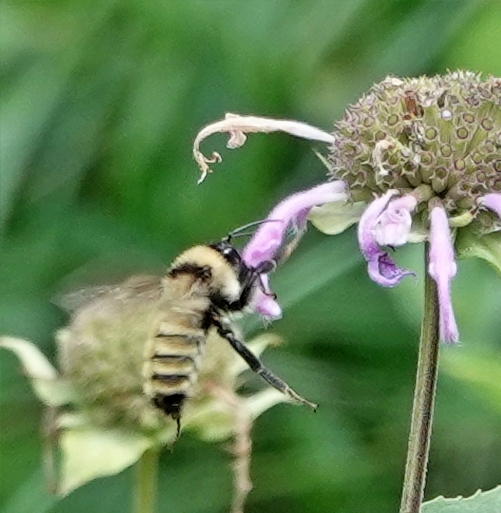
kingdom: Animalia
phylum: Arthropoda
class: Insecta
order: Hymenoptera
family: Apidae
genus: Bombus
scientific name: Bombus fervidus
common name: Yellow bumble bee
